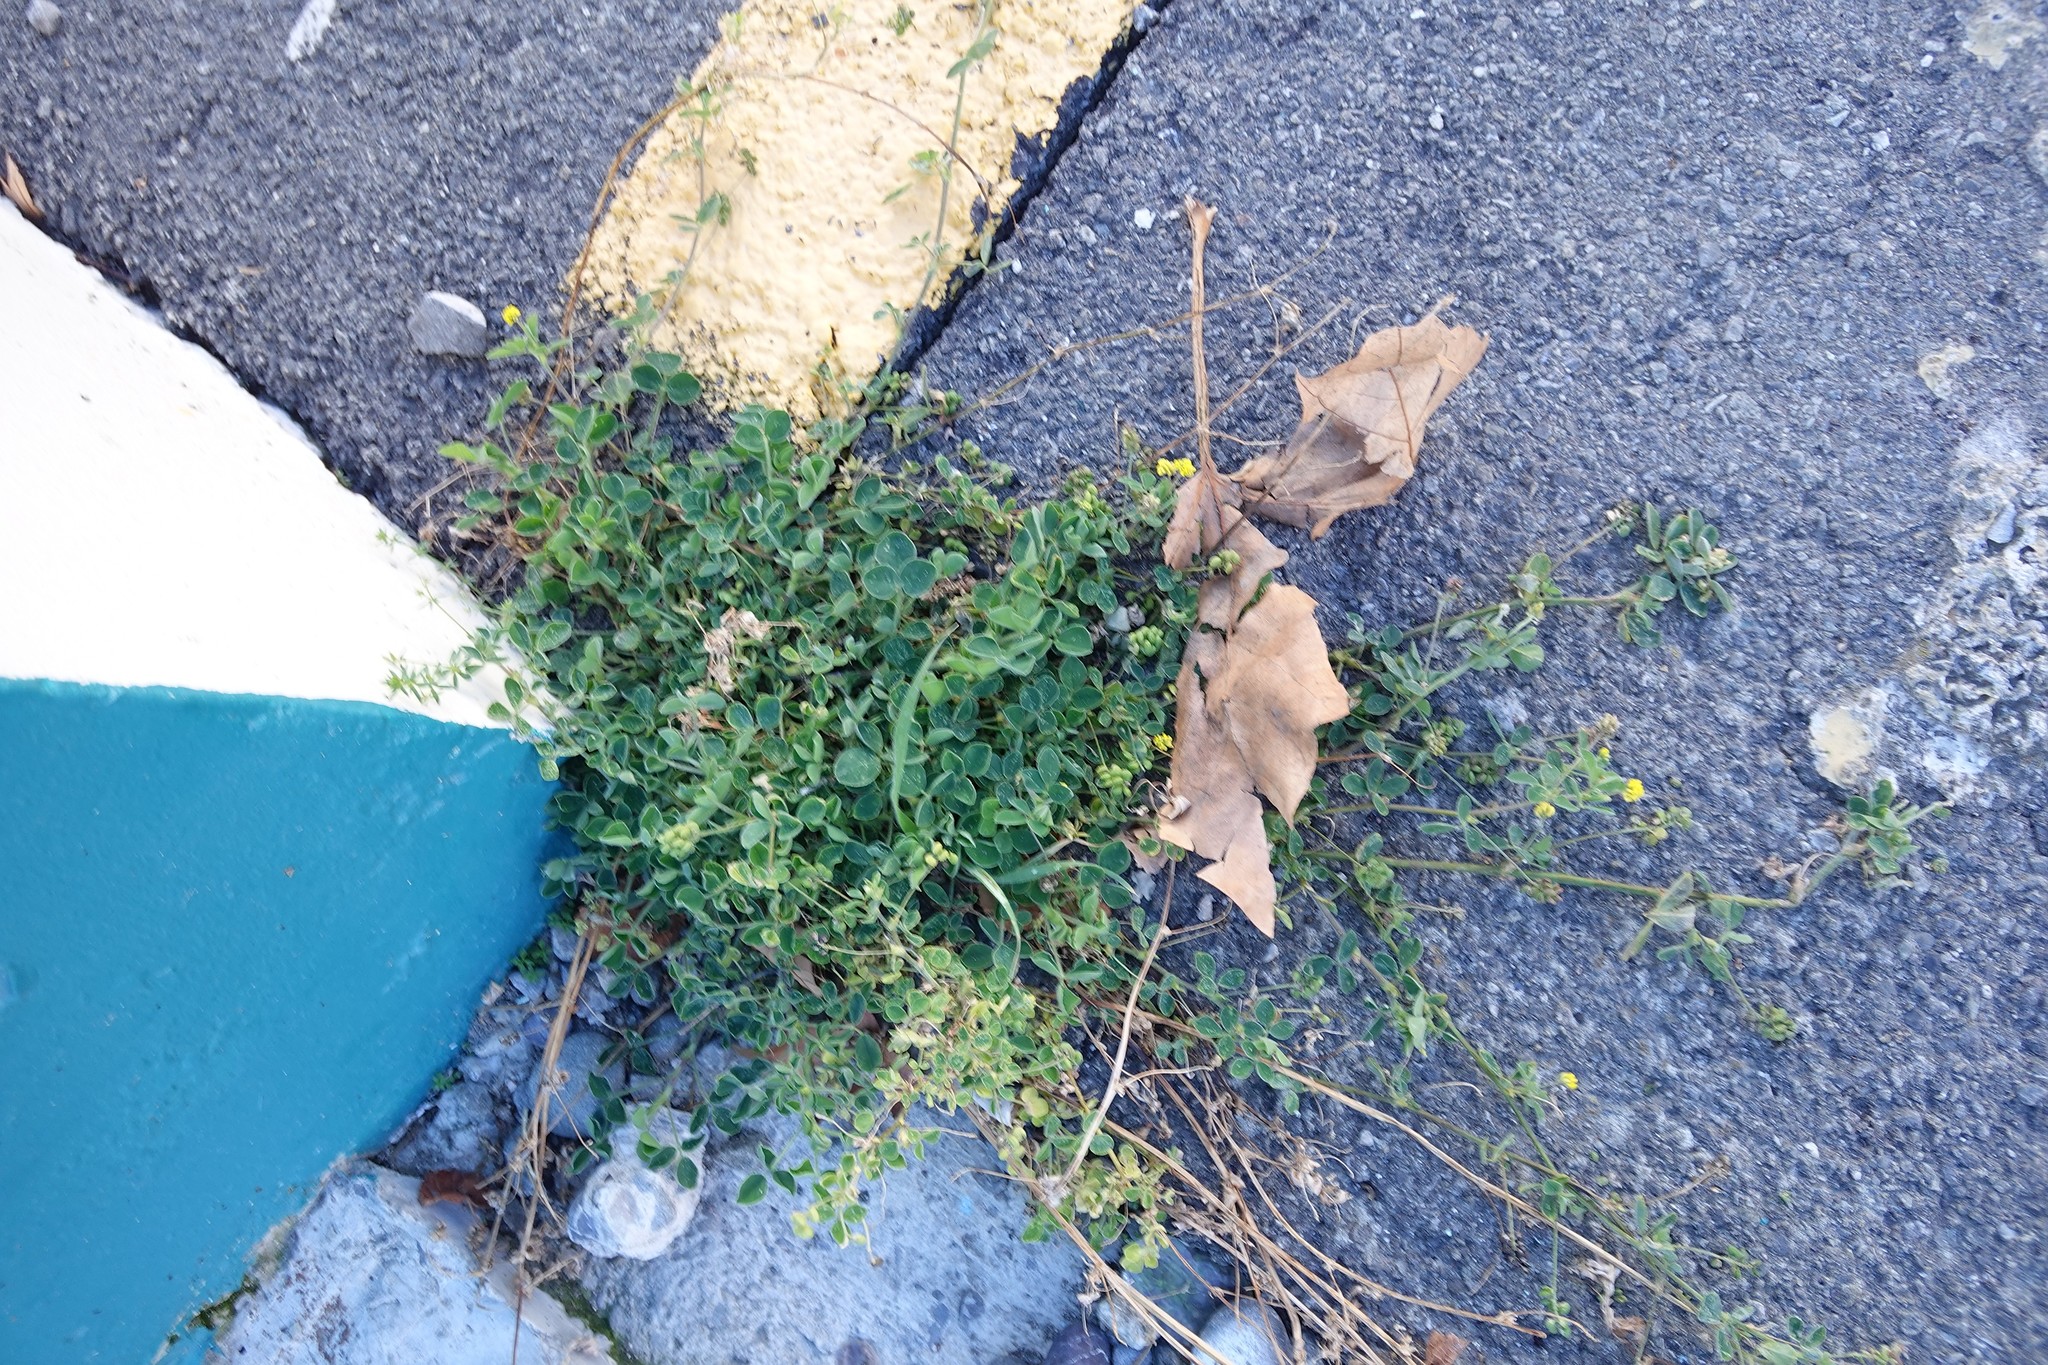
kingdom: Plantae
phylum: Tracheophyta
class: Magnoliopsida
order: Fabales
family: Fabaceae
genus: Medicago
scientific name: Medicago lupulina
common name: Black medick
